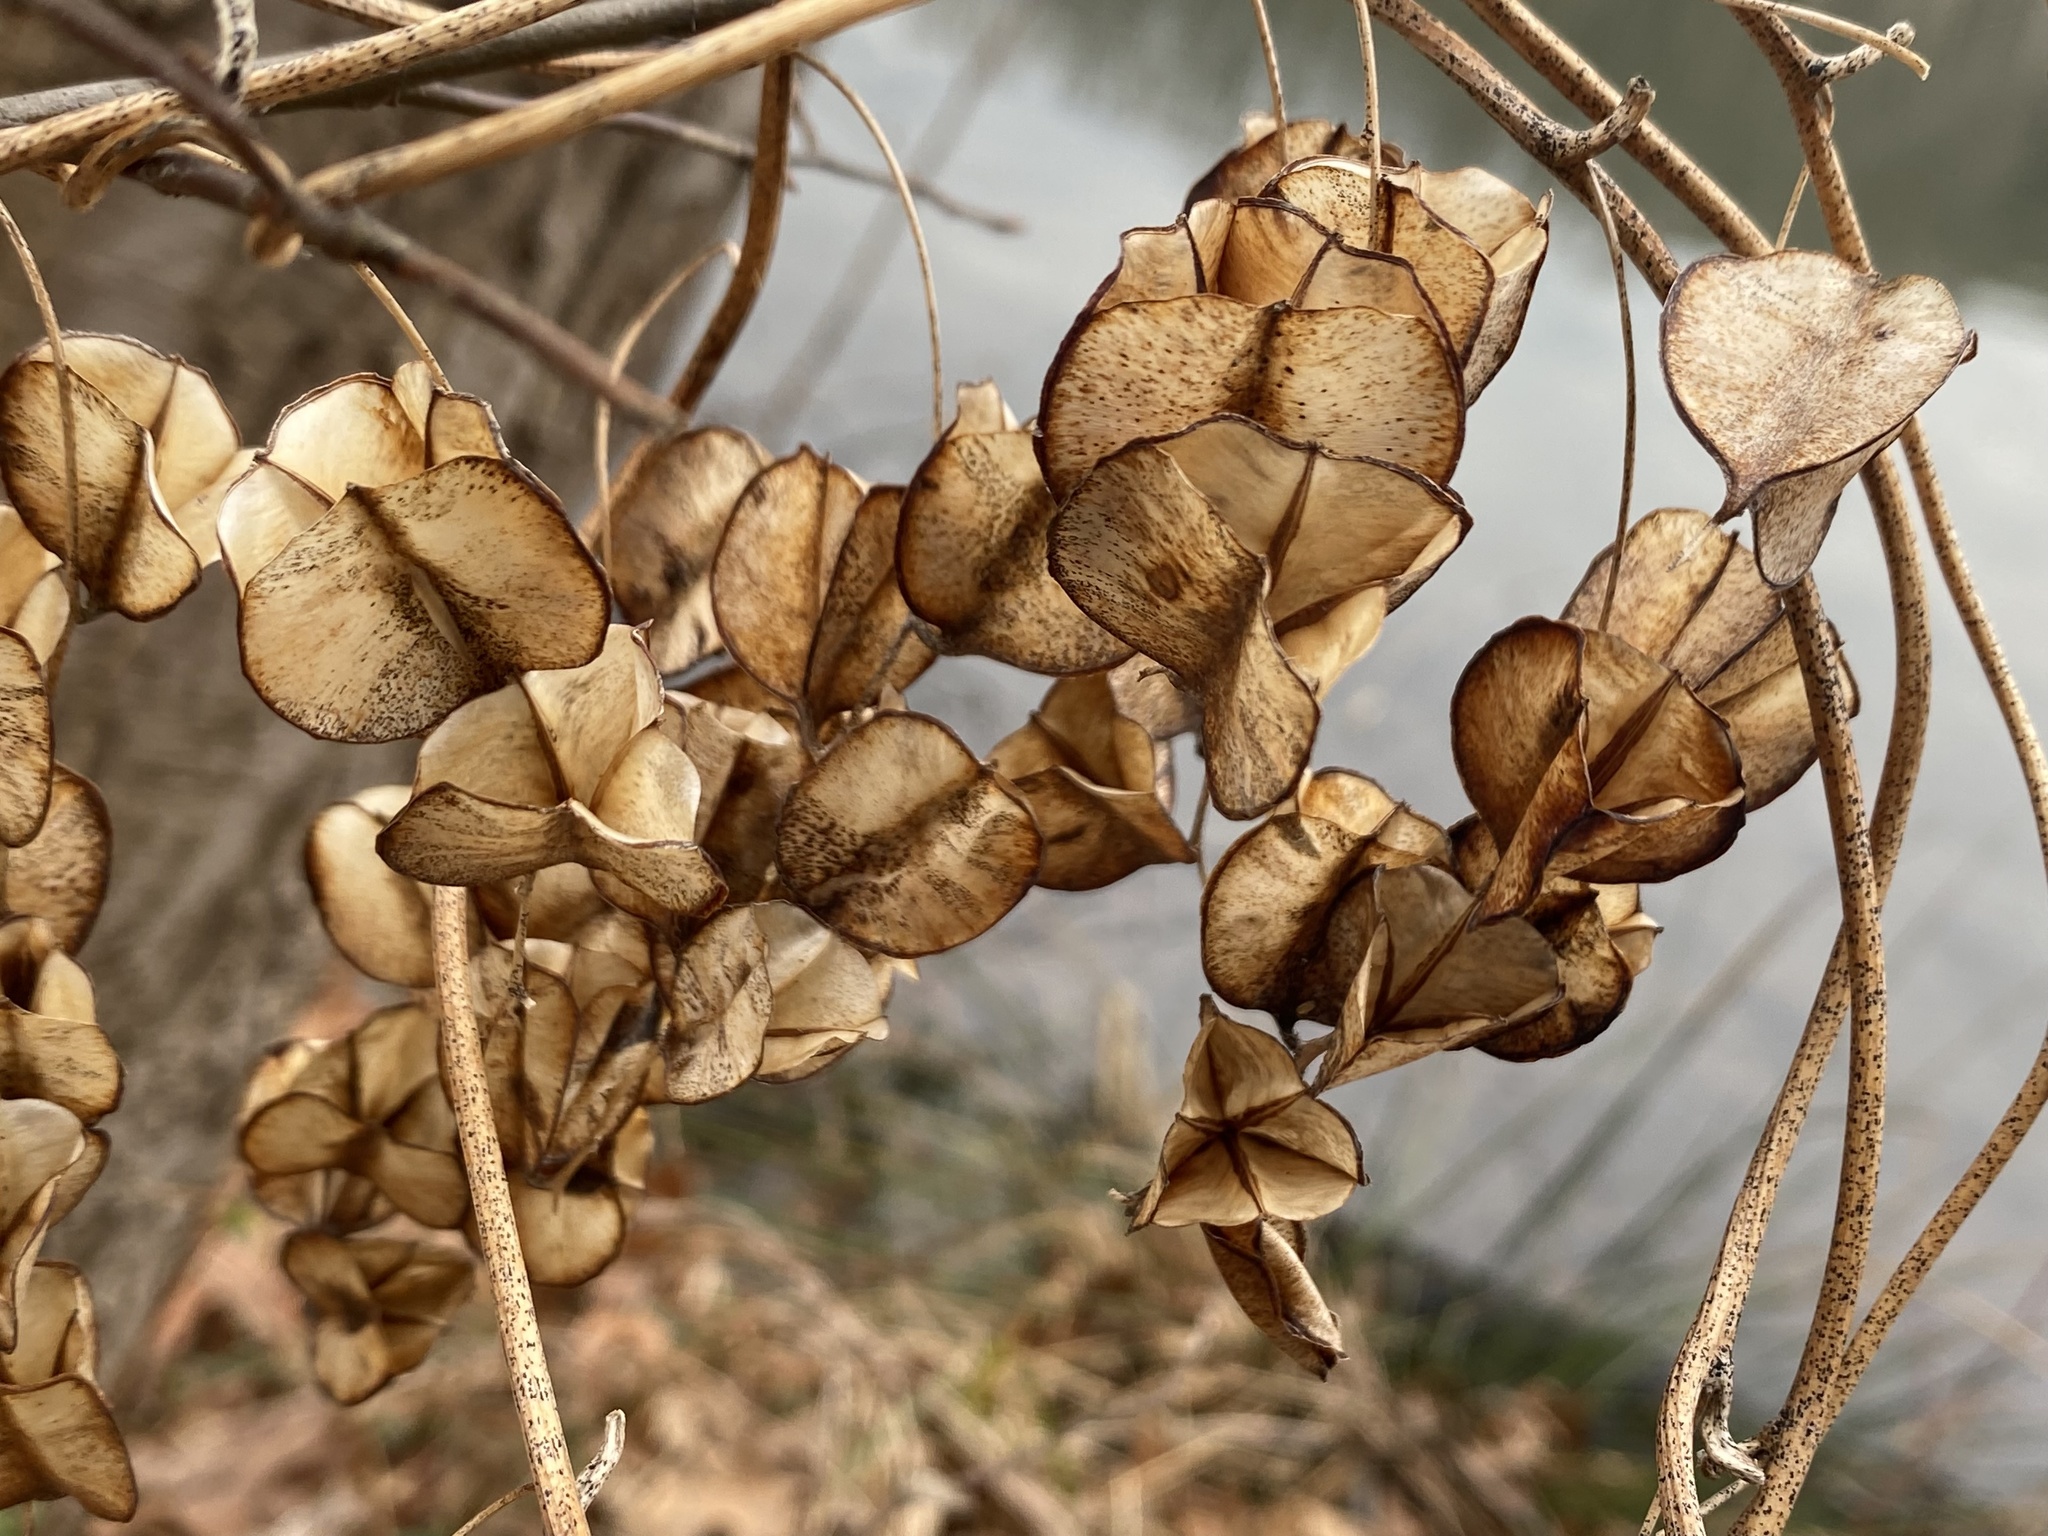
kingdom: Plantae
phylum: Tracheophyta
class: Liliopsida
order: Dioscoreales
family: Dioscoreaceae
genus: Dioscorea
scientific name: Dioscorea villosa
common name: Wild yam
